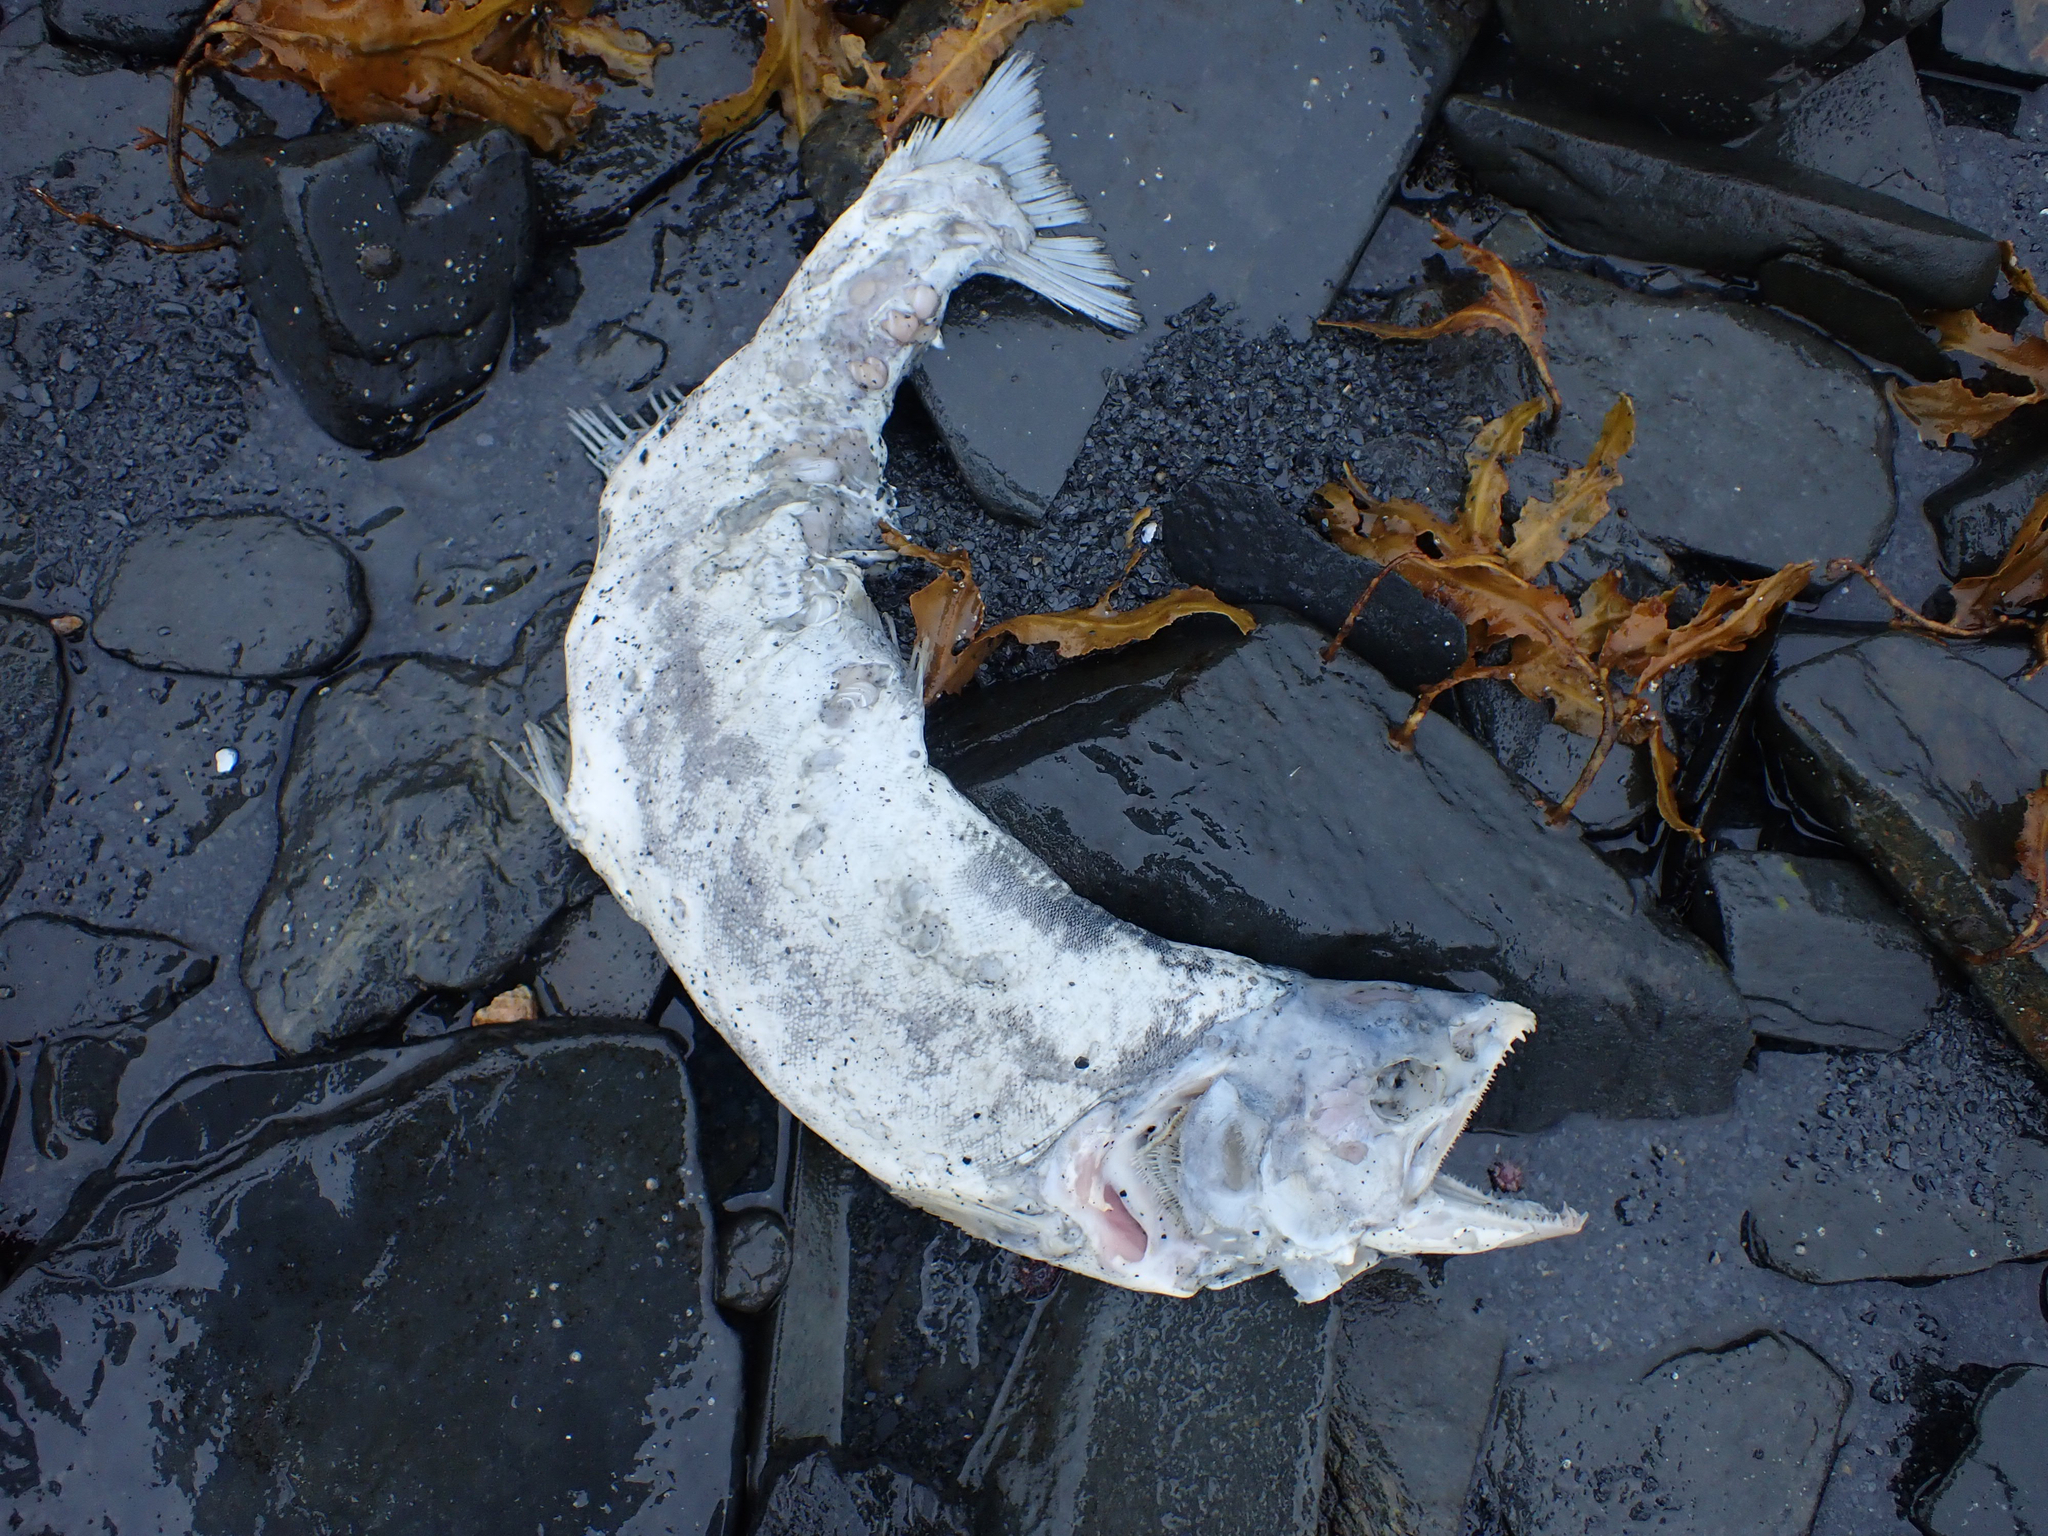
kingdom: Animalia
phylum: Chordata
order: Salmoniformes
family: Salmonidae
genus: Oncorhynchus
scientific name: Oncorhynchus gorbuscha
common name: Humpback salmon
